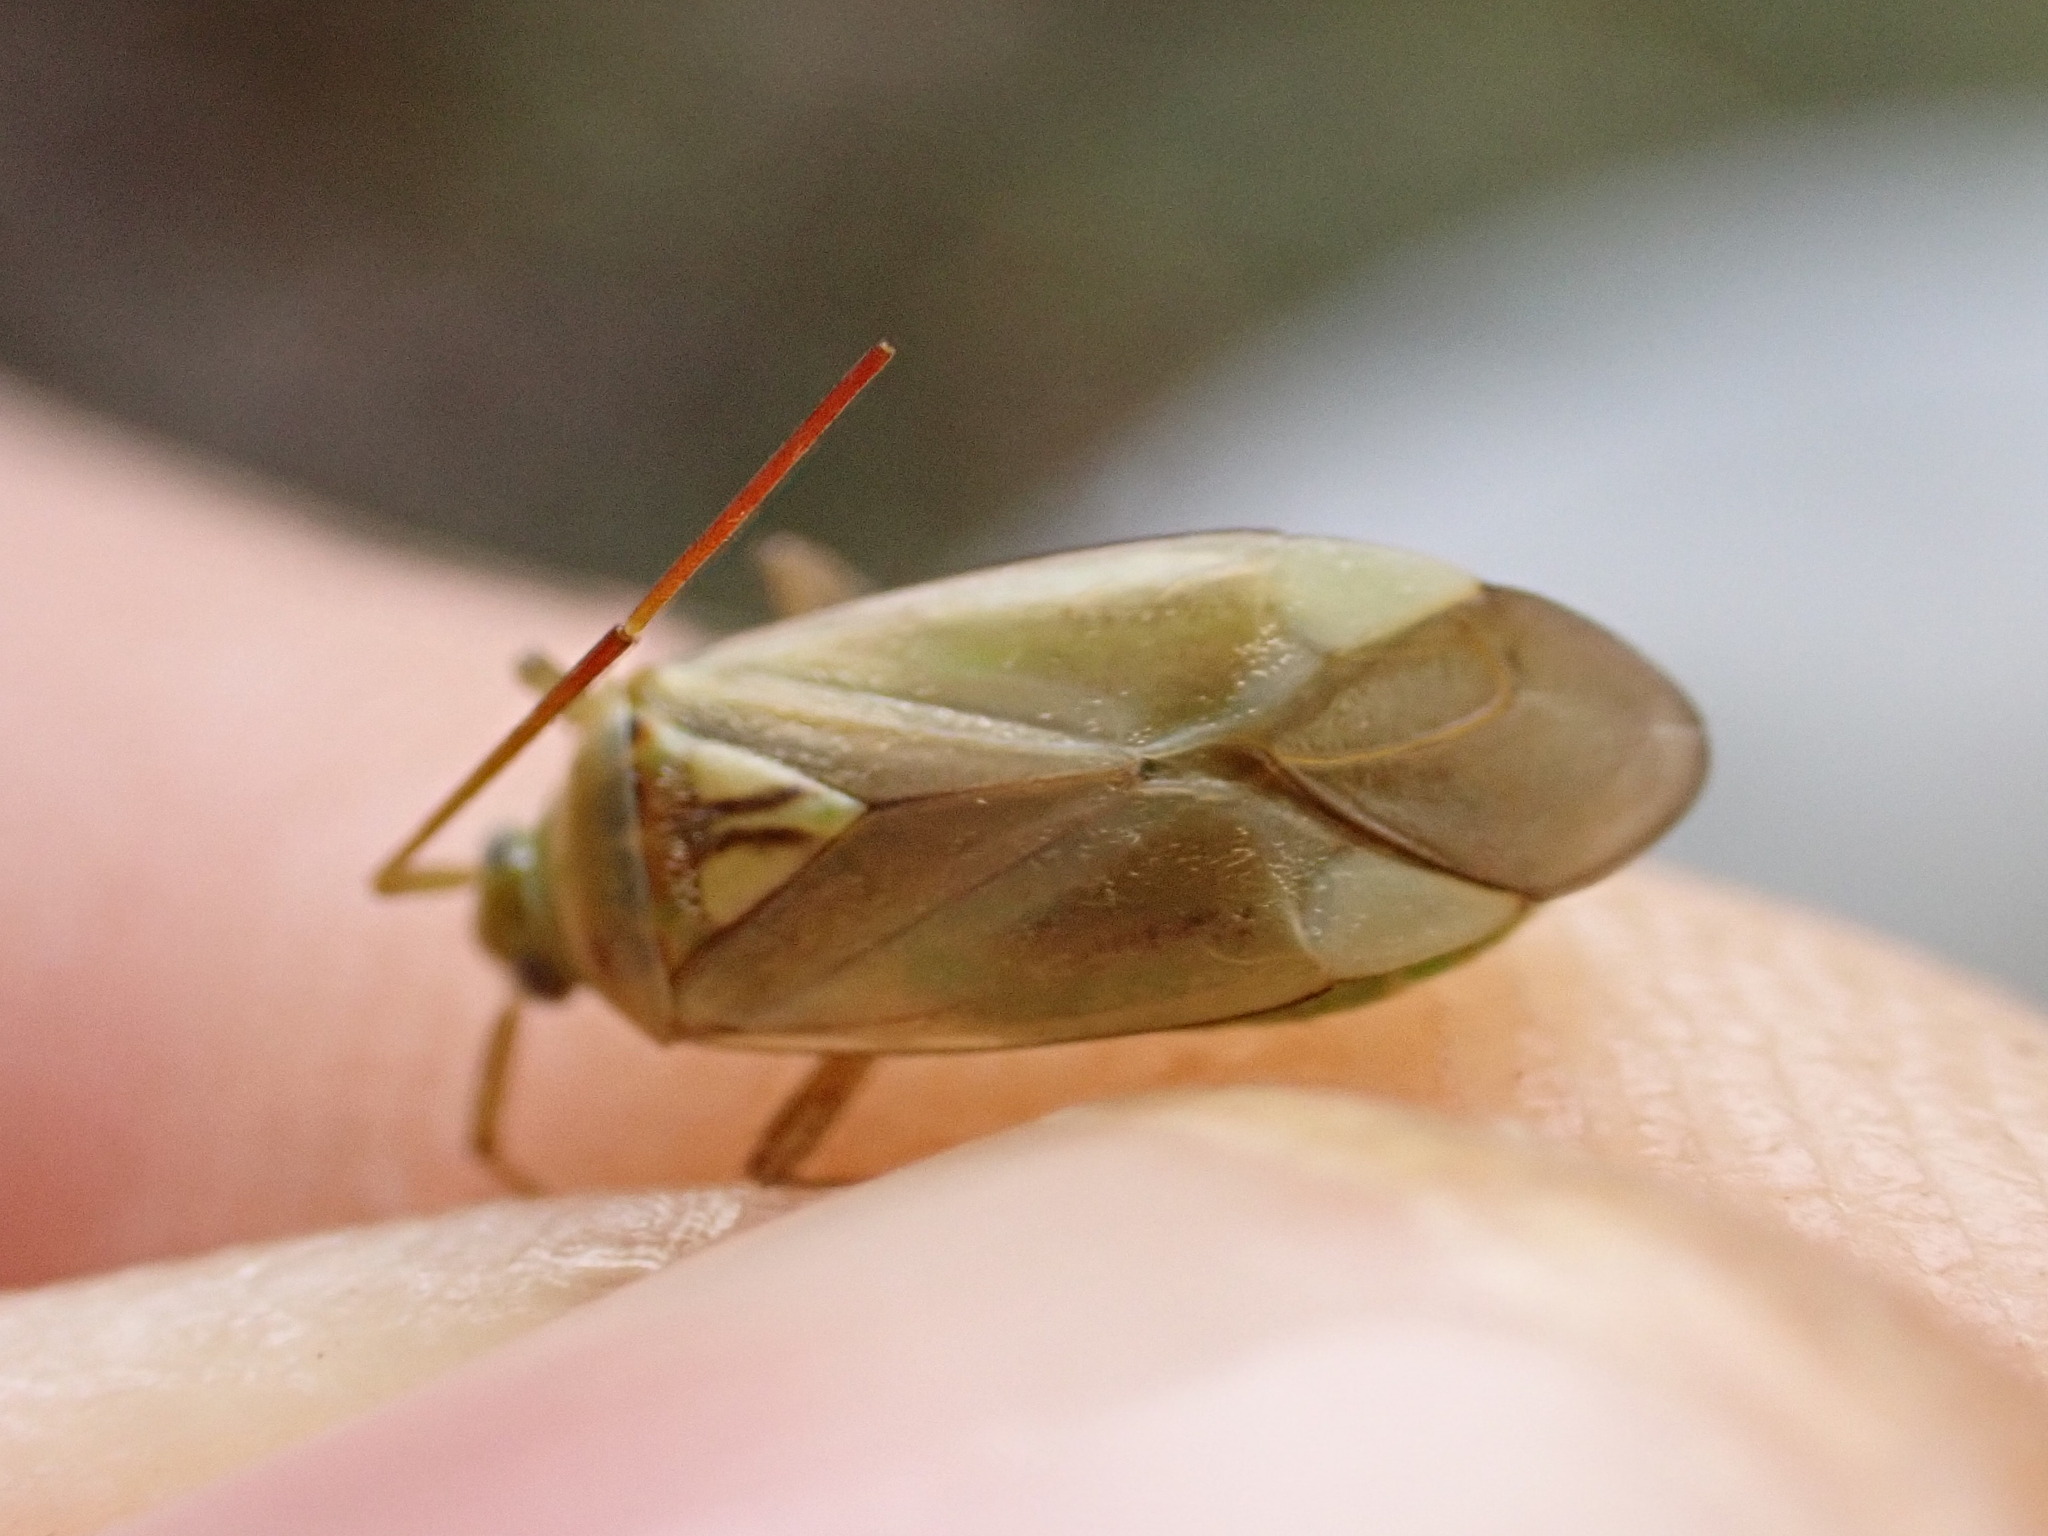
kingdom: Animalia
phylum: Arthropoda
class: Insecta
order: Hemiptera
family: Miridae
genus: Adelphocoris
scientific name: Adelphocoris lineolatus
